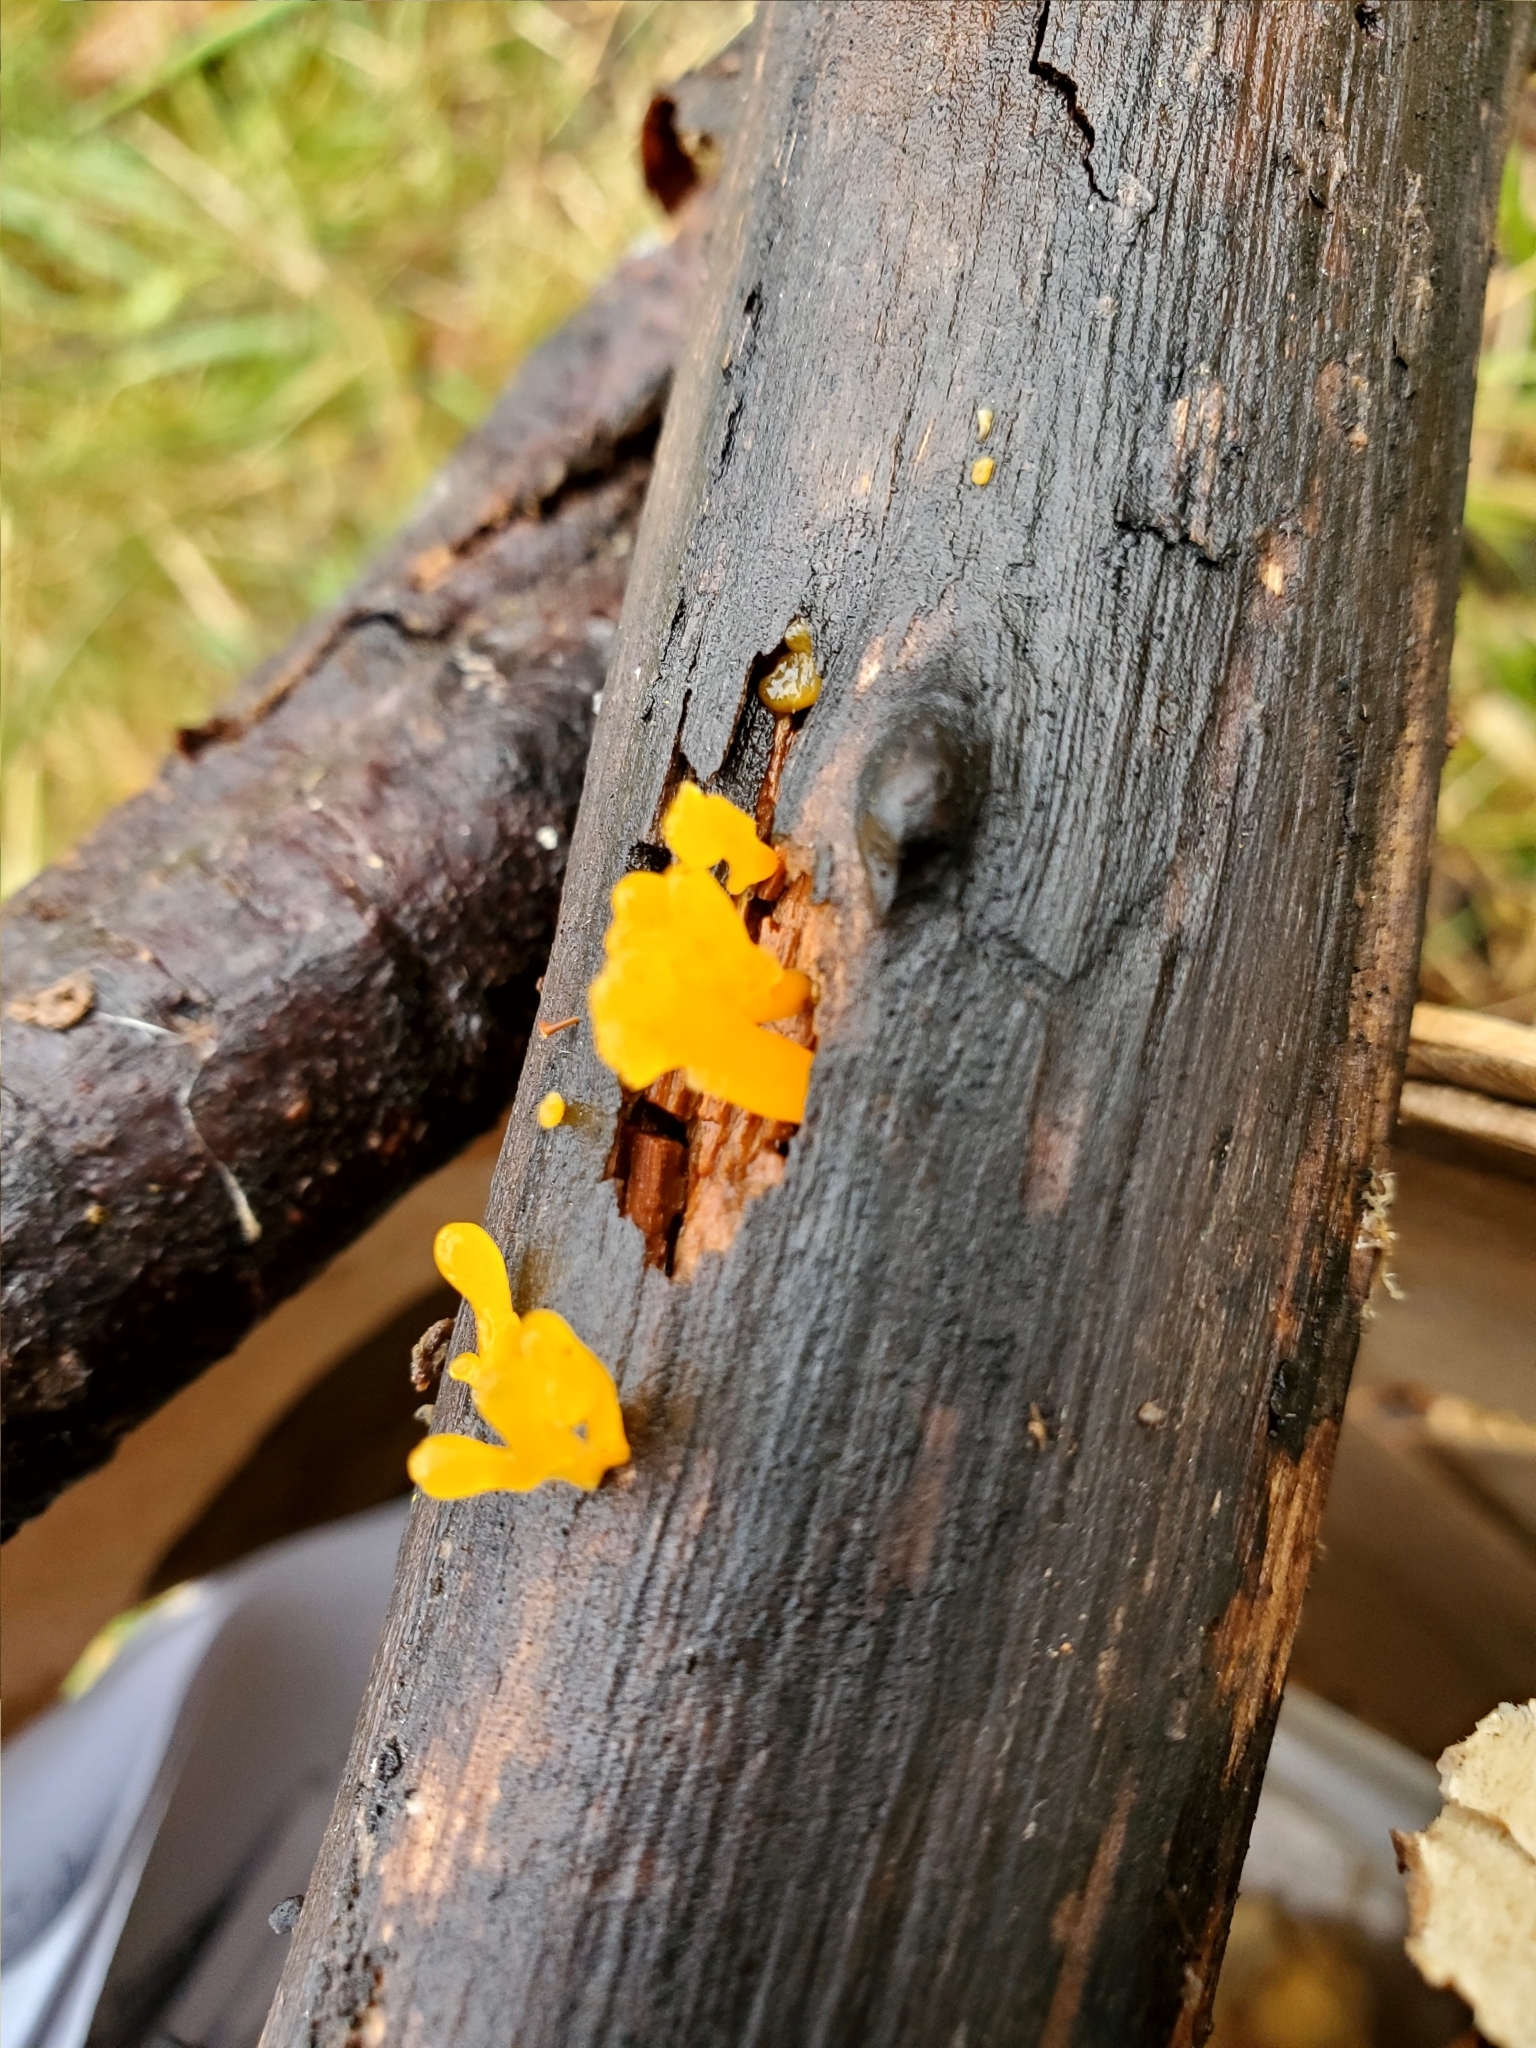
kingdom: Fungi
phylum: Basidiomycota
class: Tremellomycetes
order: Tremellales
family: Tremellaceae
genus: Tremella
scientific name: Tremella mesenterica
